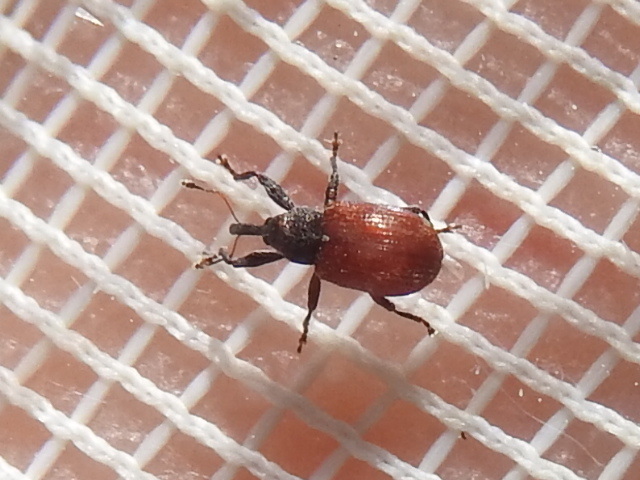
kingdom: Animalia
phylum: Arthropoda
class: Insecta
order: Coleoptera
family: Curculionidae
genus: Anthonomus
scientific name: Anthonomus convictus
